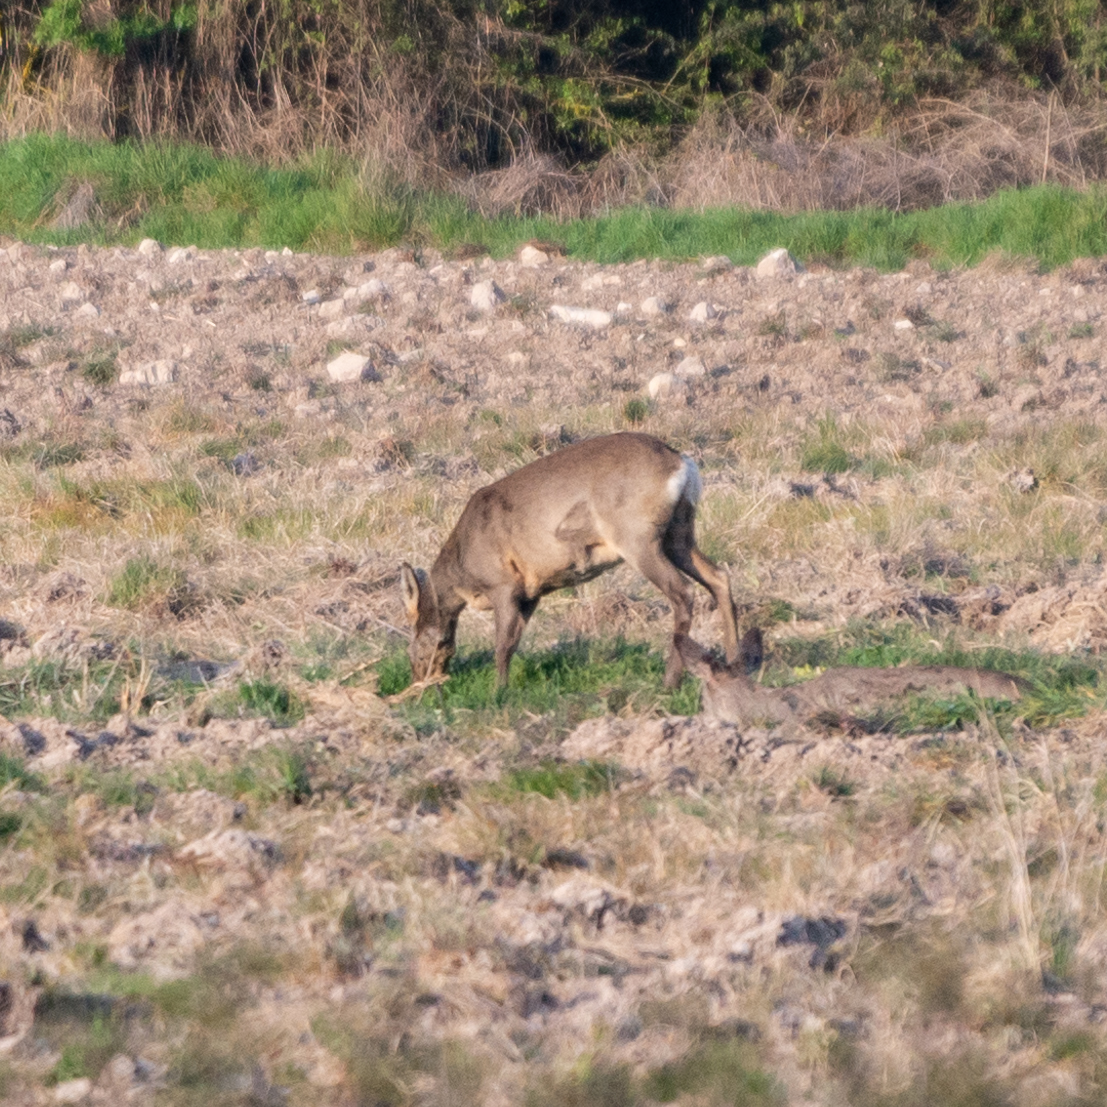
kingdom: Animalia
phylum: Chordata
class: Mammalia
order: Artiodactyla
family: Cervidae
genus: Capreolus
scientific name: Capreolus capreolus
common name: Western roe deer
